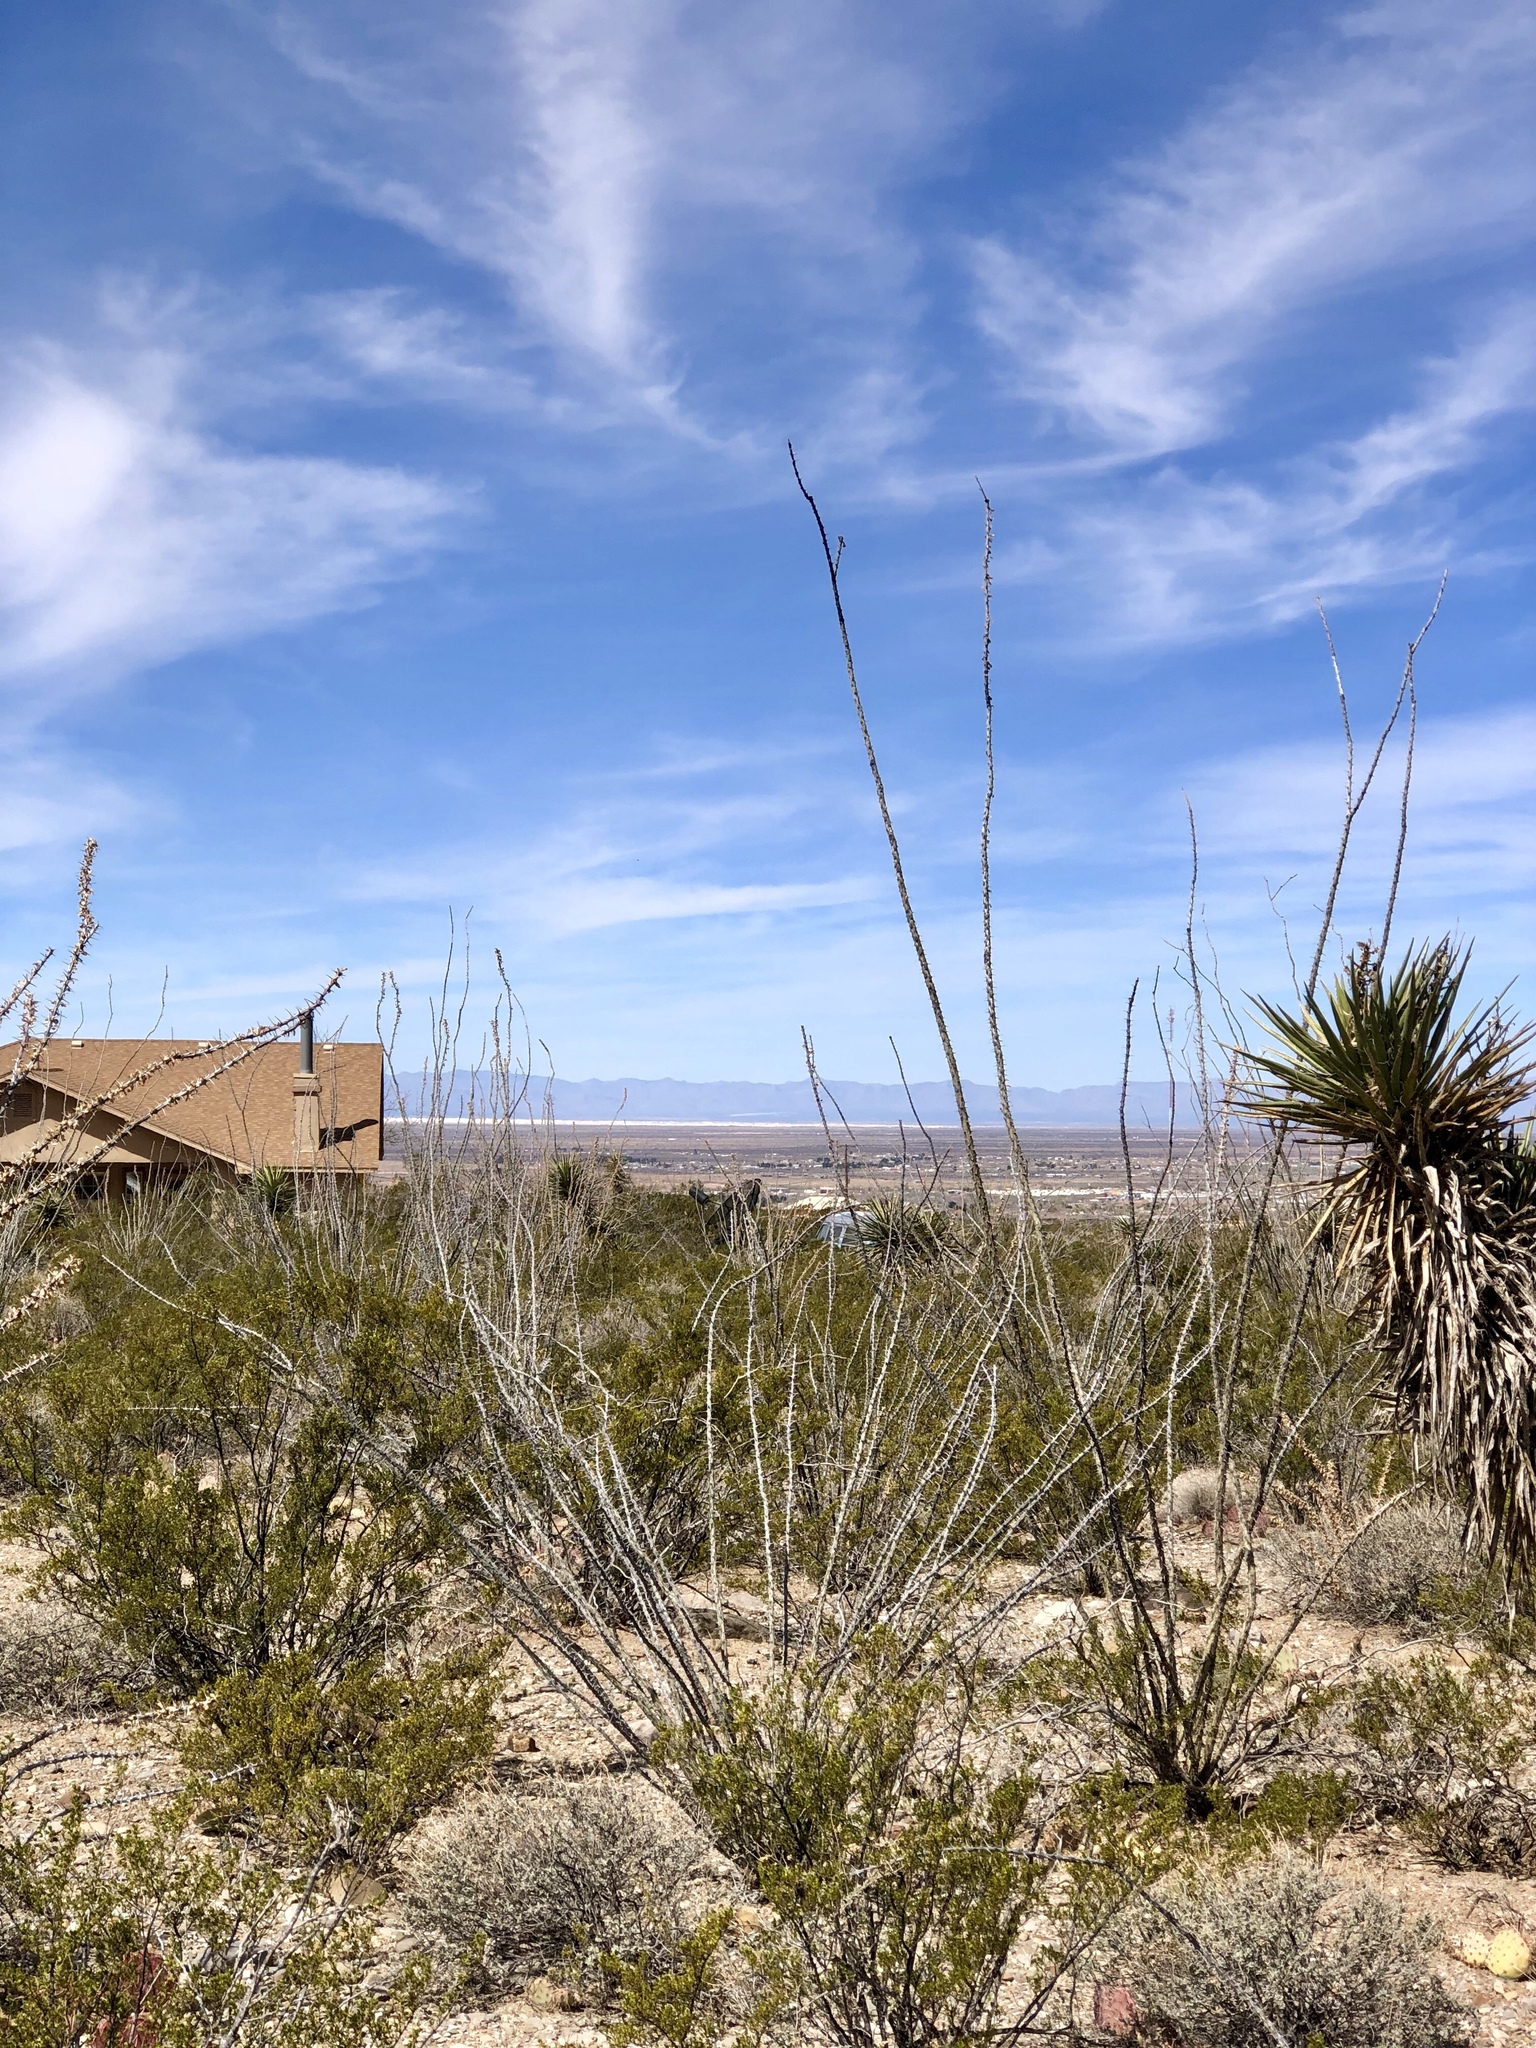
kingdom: Plantae
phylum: Tracheophyta
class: Magnoliopsida
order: Ericales
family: Fouquieriaceae
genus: Fouquieria
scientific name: Fouquieria splendens
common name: Vine-cactus
